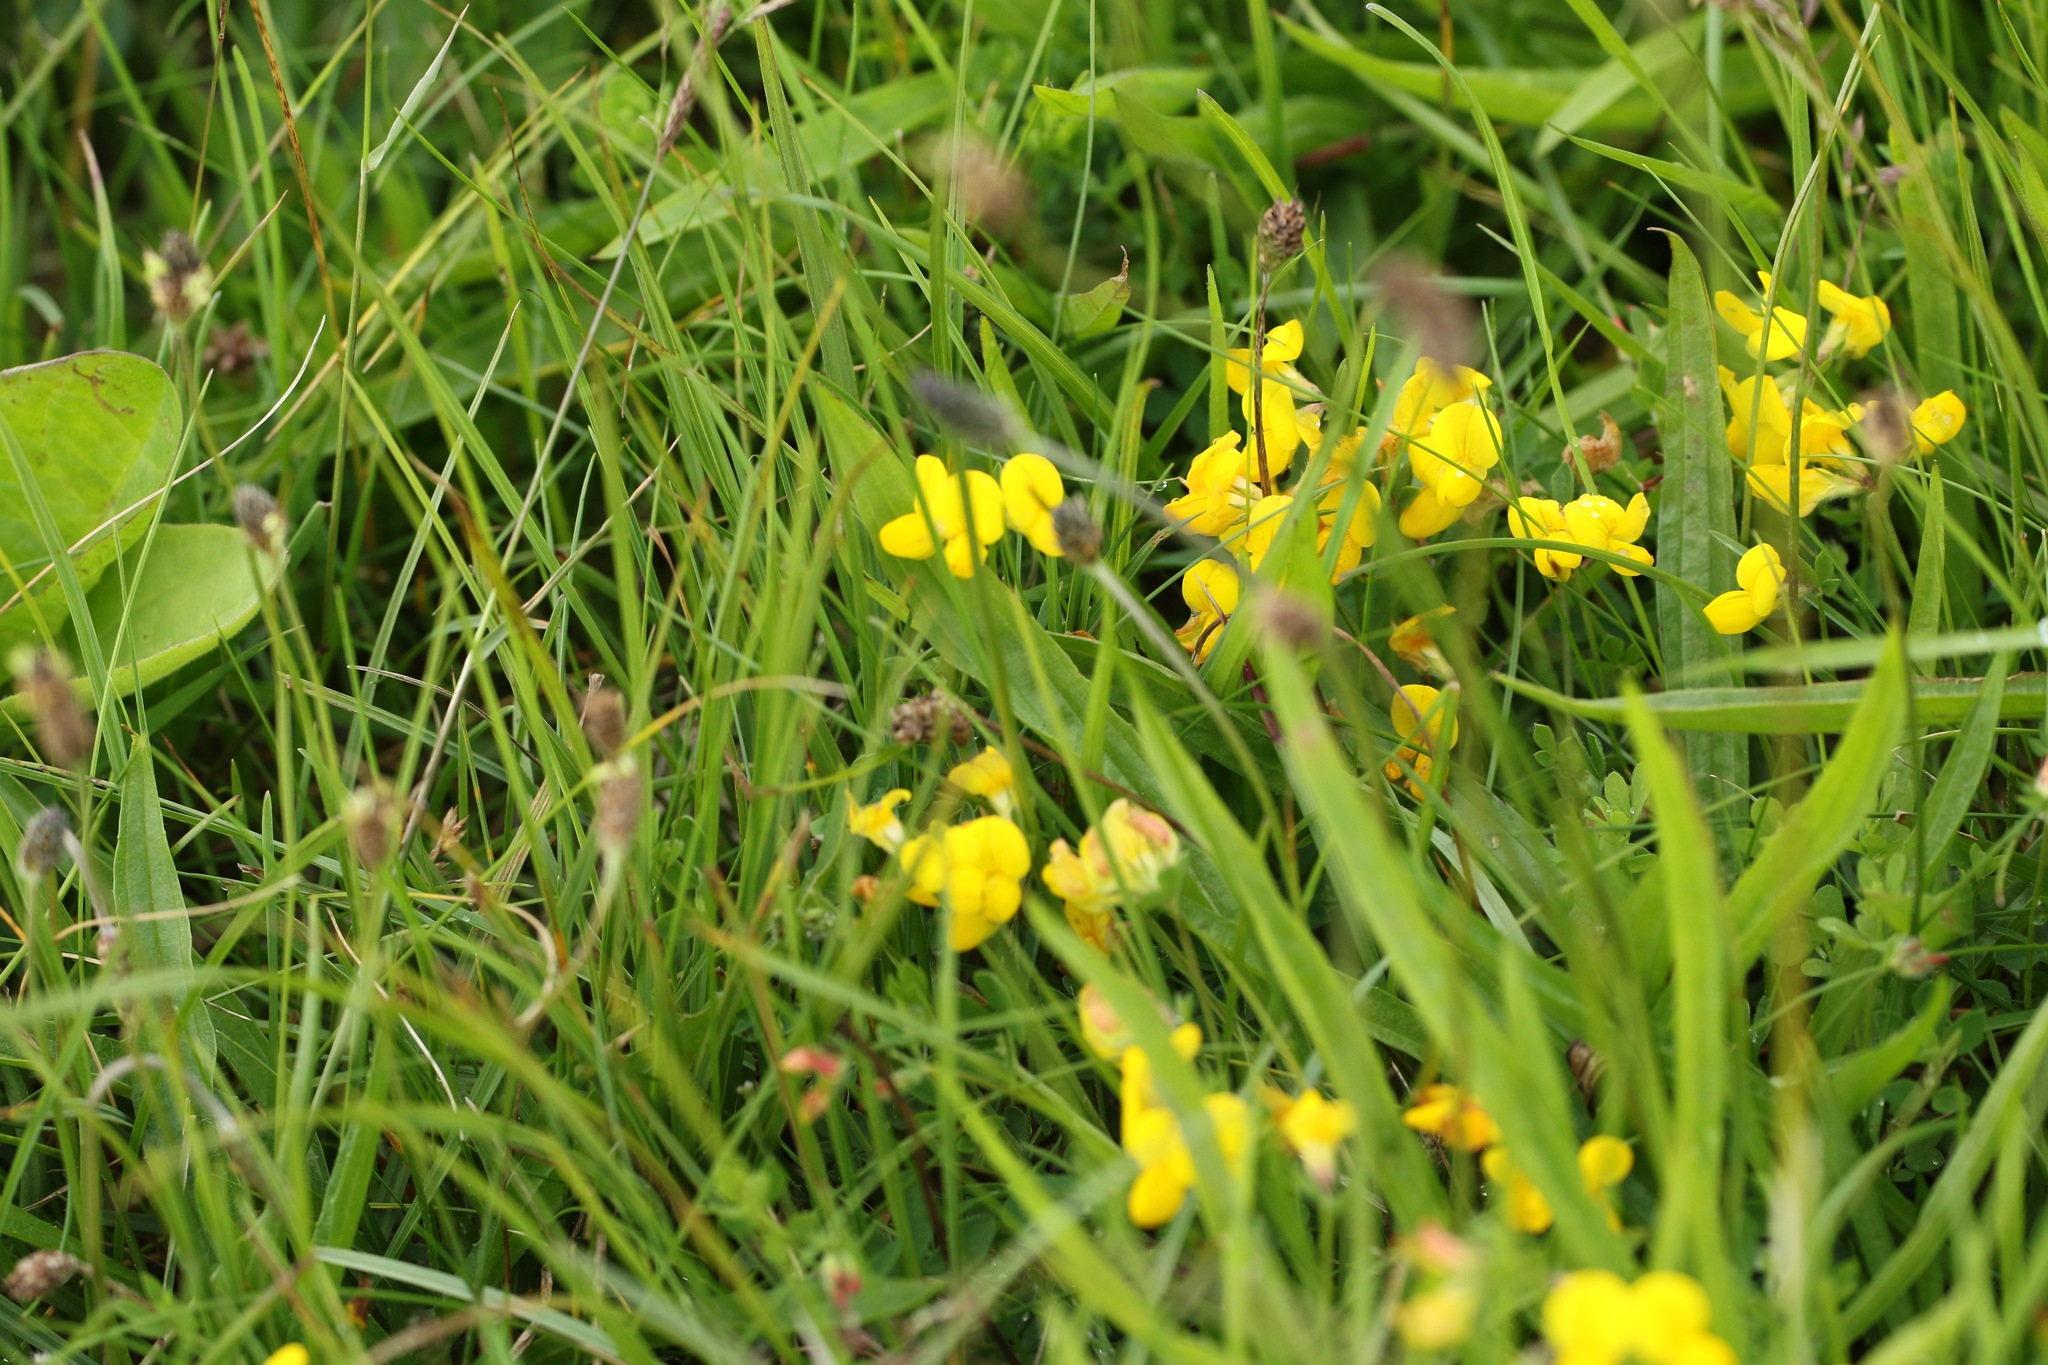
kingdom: Plantae
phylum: Tracheophyta
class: Magnoliopsida
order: Fabales
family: Fabaceae
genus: Lotus
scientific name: Lotus corniculatus
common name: Common bird's-foot-trefoil
